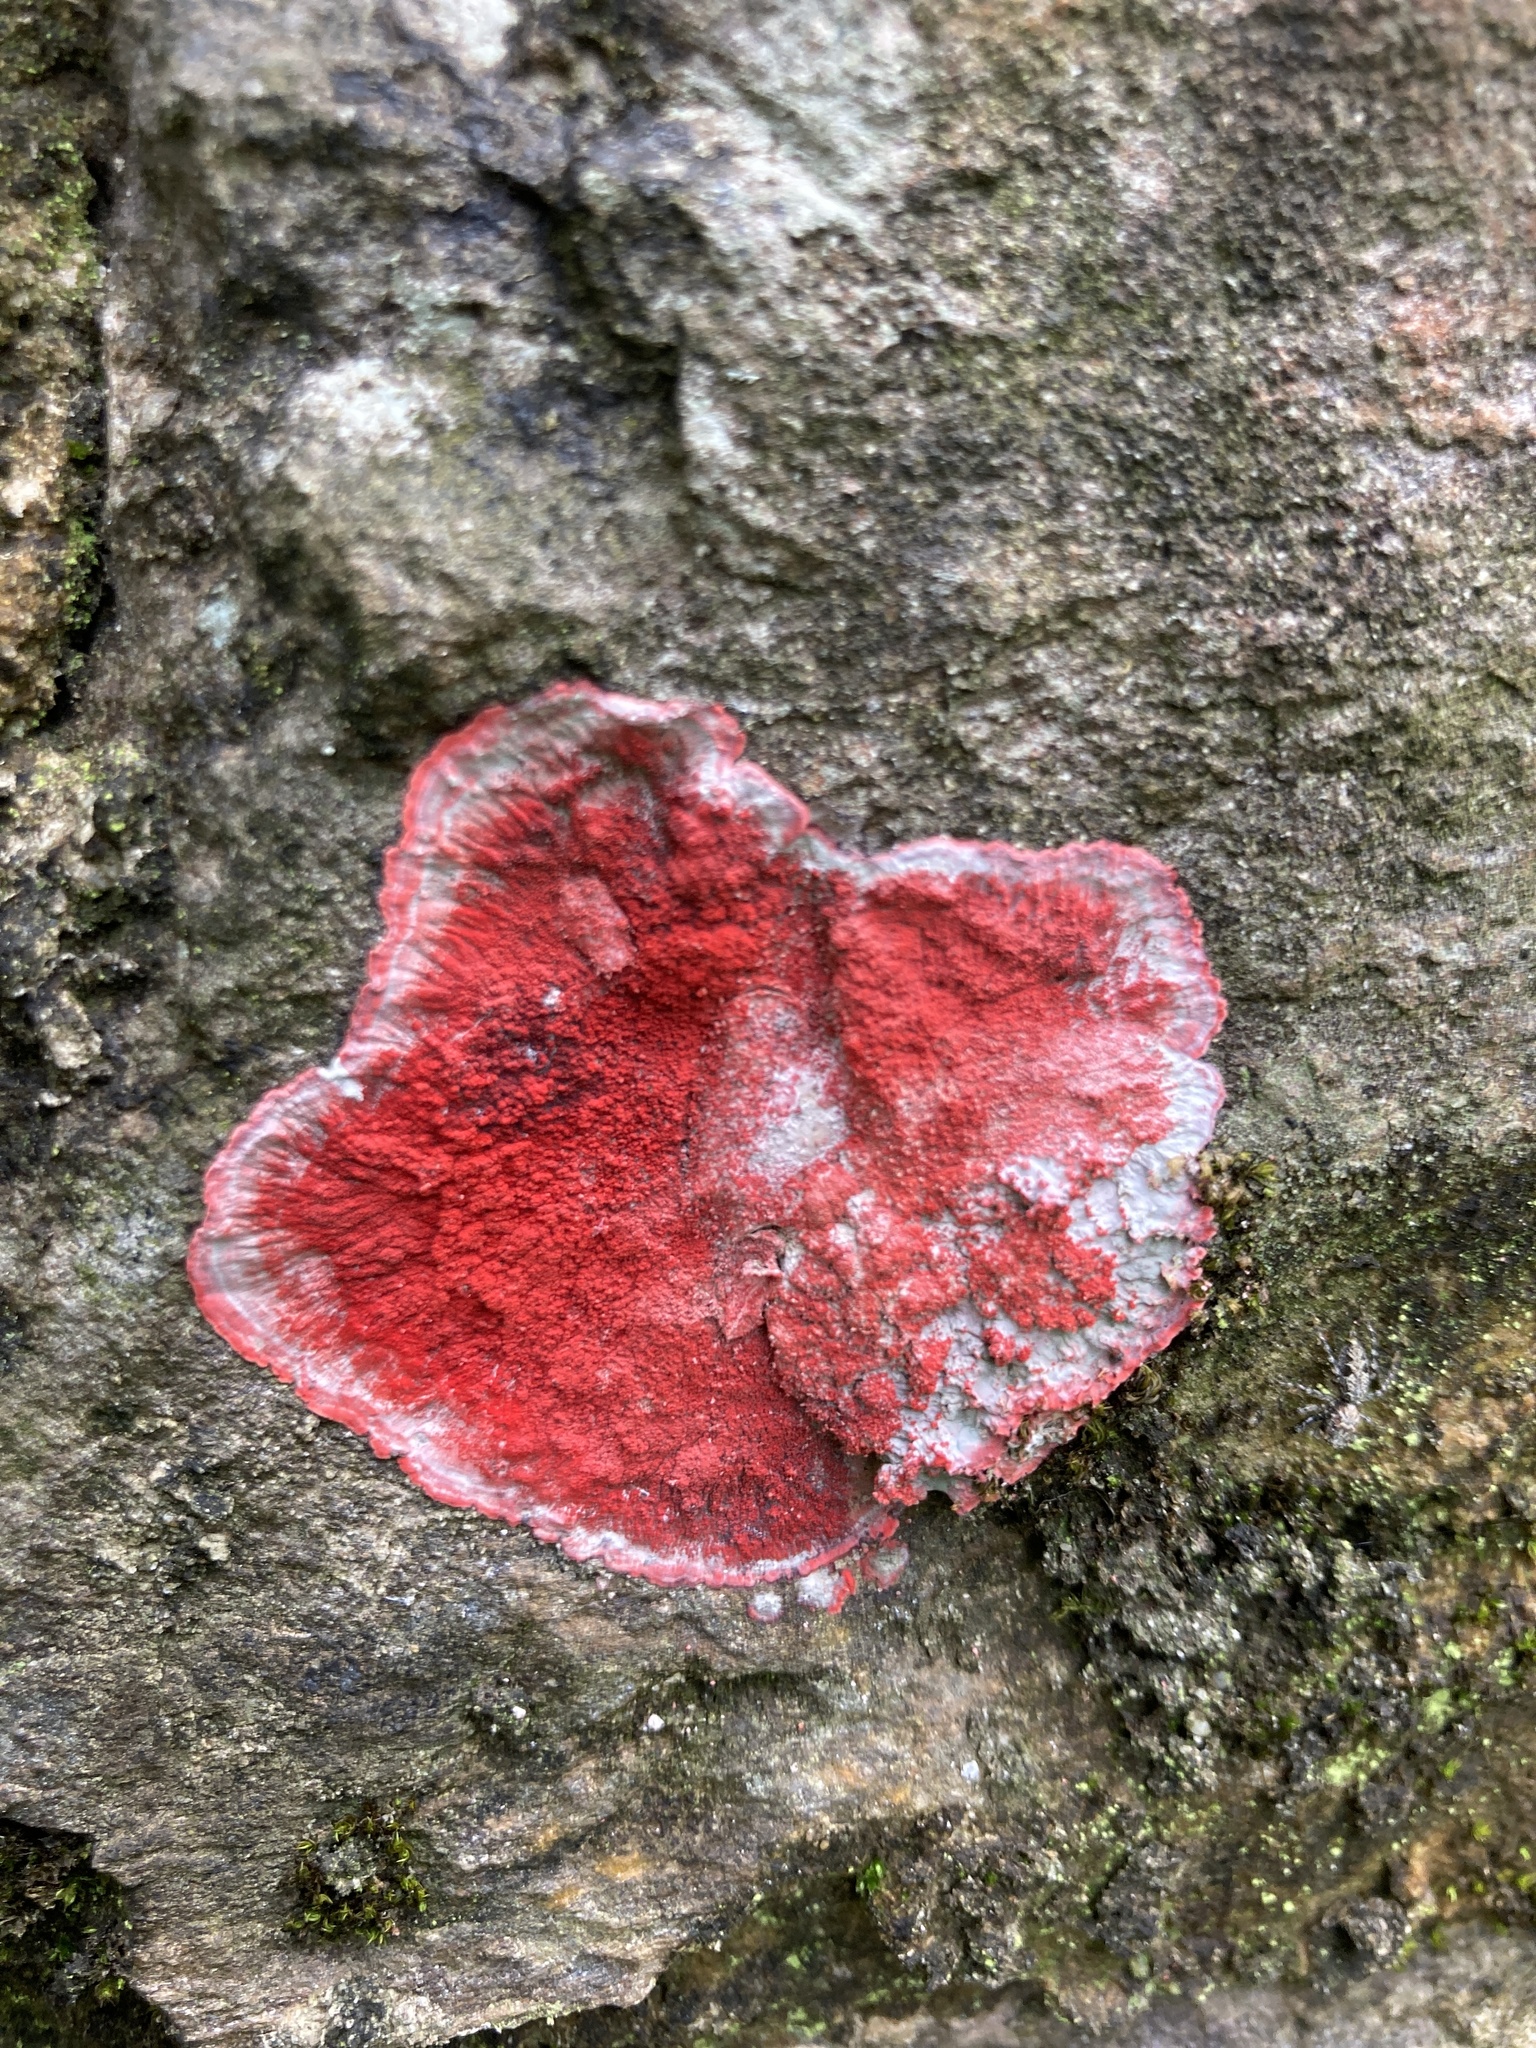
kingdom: Fungi
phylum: Ascomycota
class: Arthoniomycetes
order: Arthoniales
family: Arthoniaceae
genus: Herpothallon
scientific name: Herpothallon rubrocinctum
